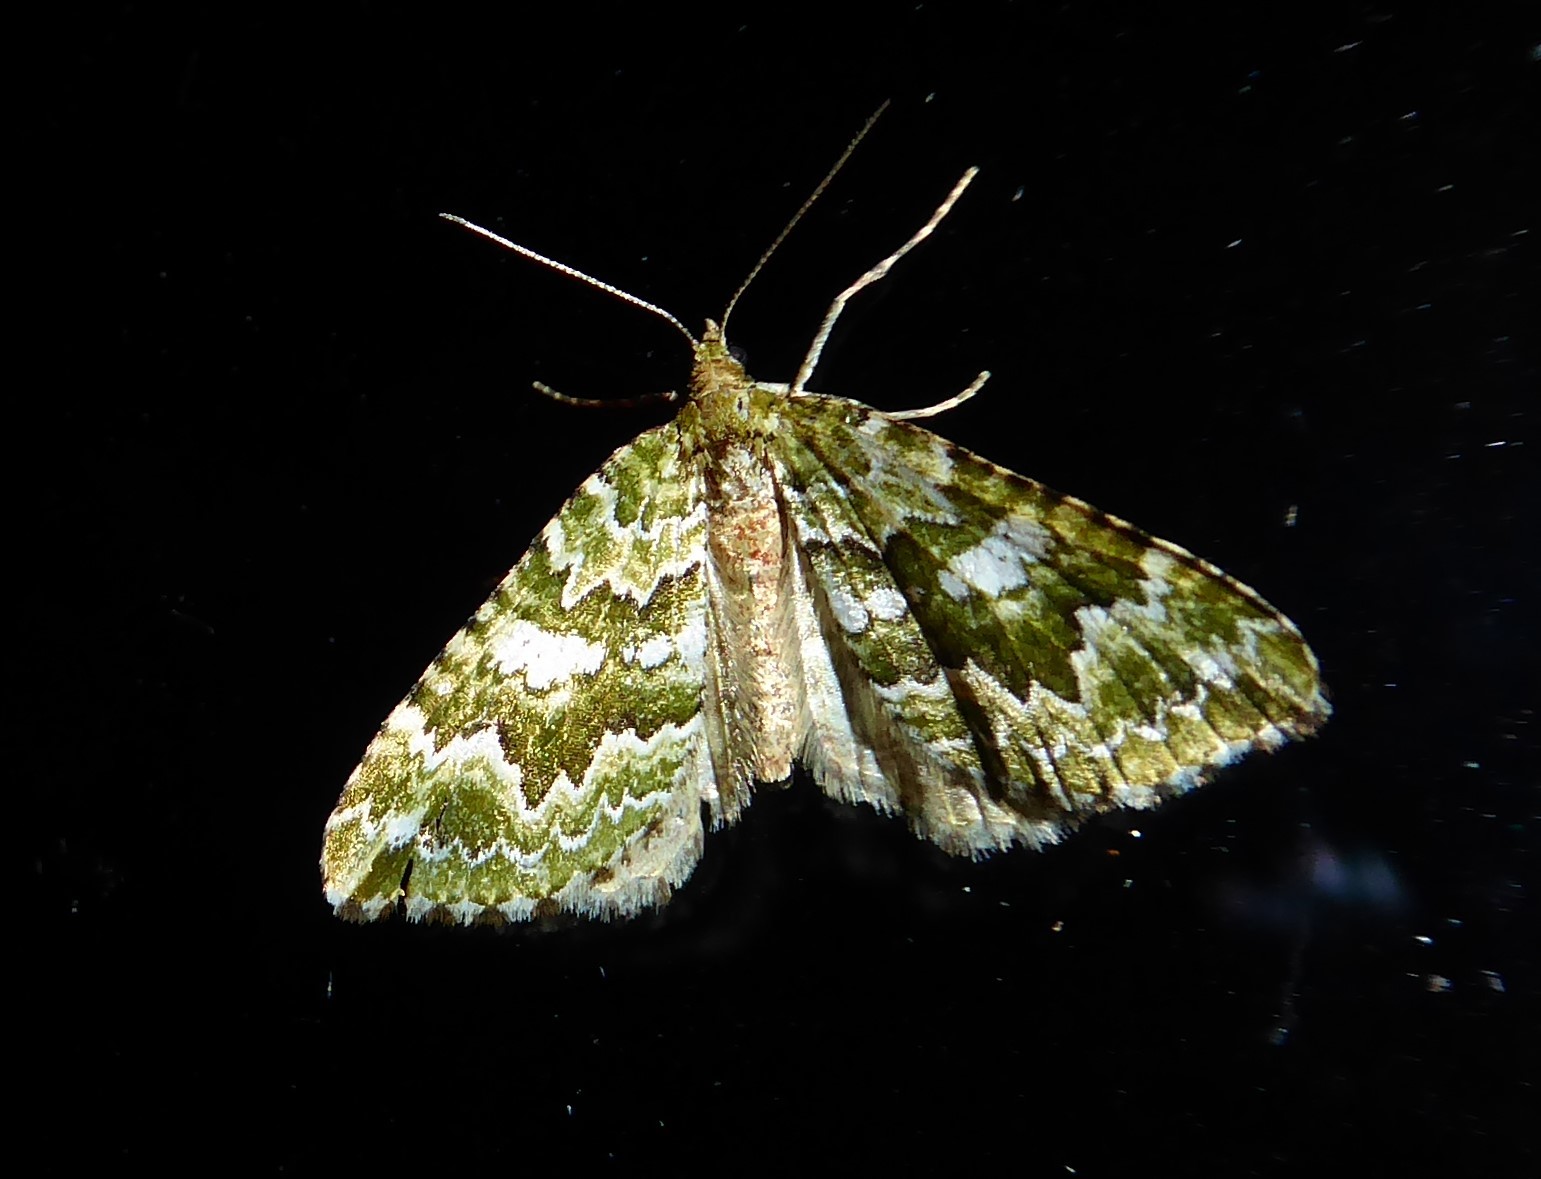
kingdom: Animalia
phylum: Arthropoda
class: Insecta
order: Lepidoptera
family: Geometridae
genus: Asaphodes
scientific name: Asaphodes beata
